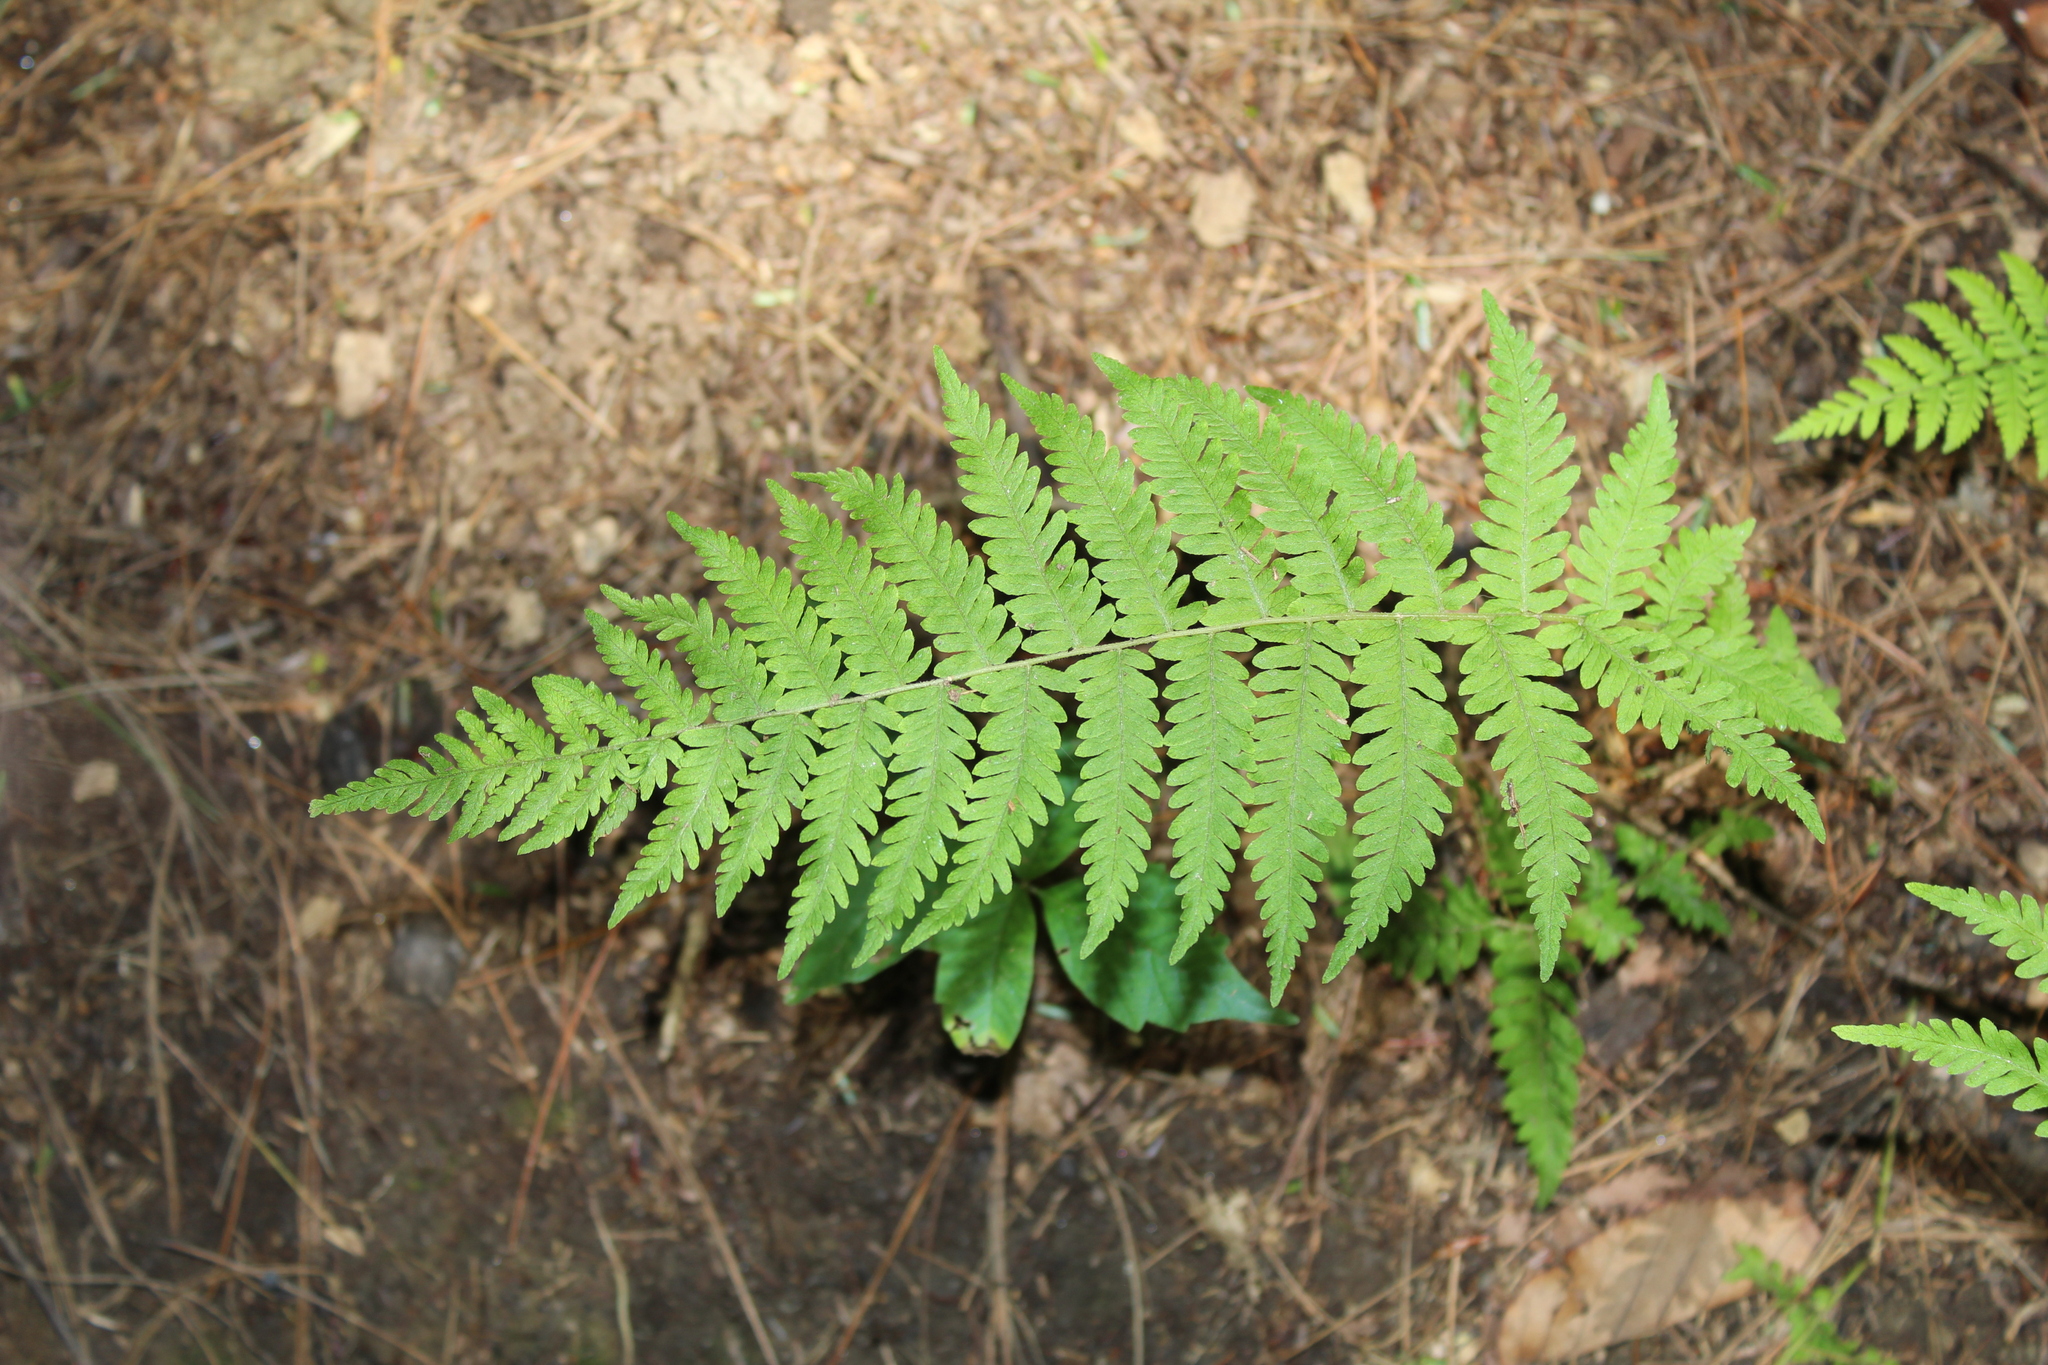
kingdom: Plantae
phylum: Tracheophyta
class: Polypodiopsida
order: Polypodiales
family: Thelypteridaceae
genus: Amauropelta
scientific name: Amauropelta noveboracensis
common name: New york fern
